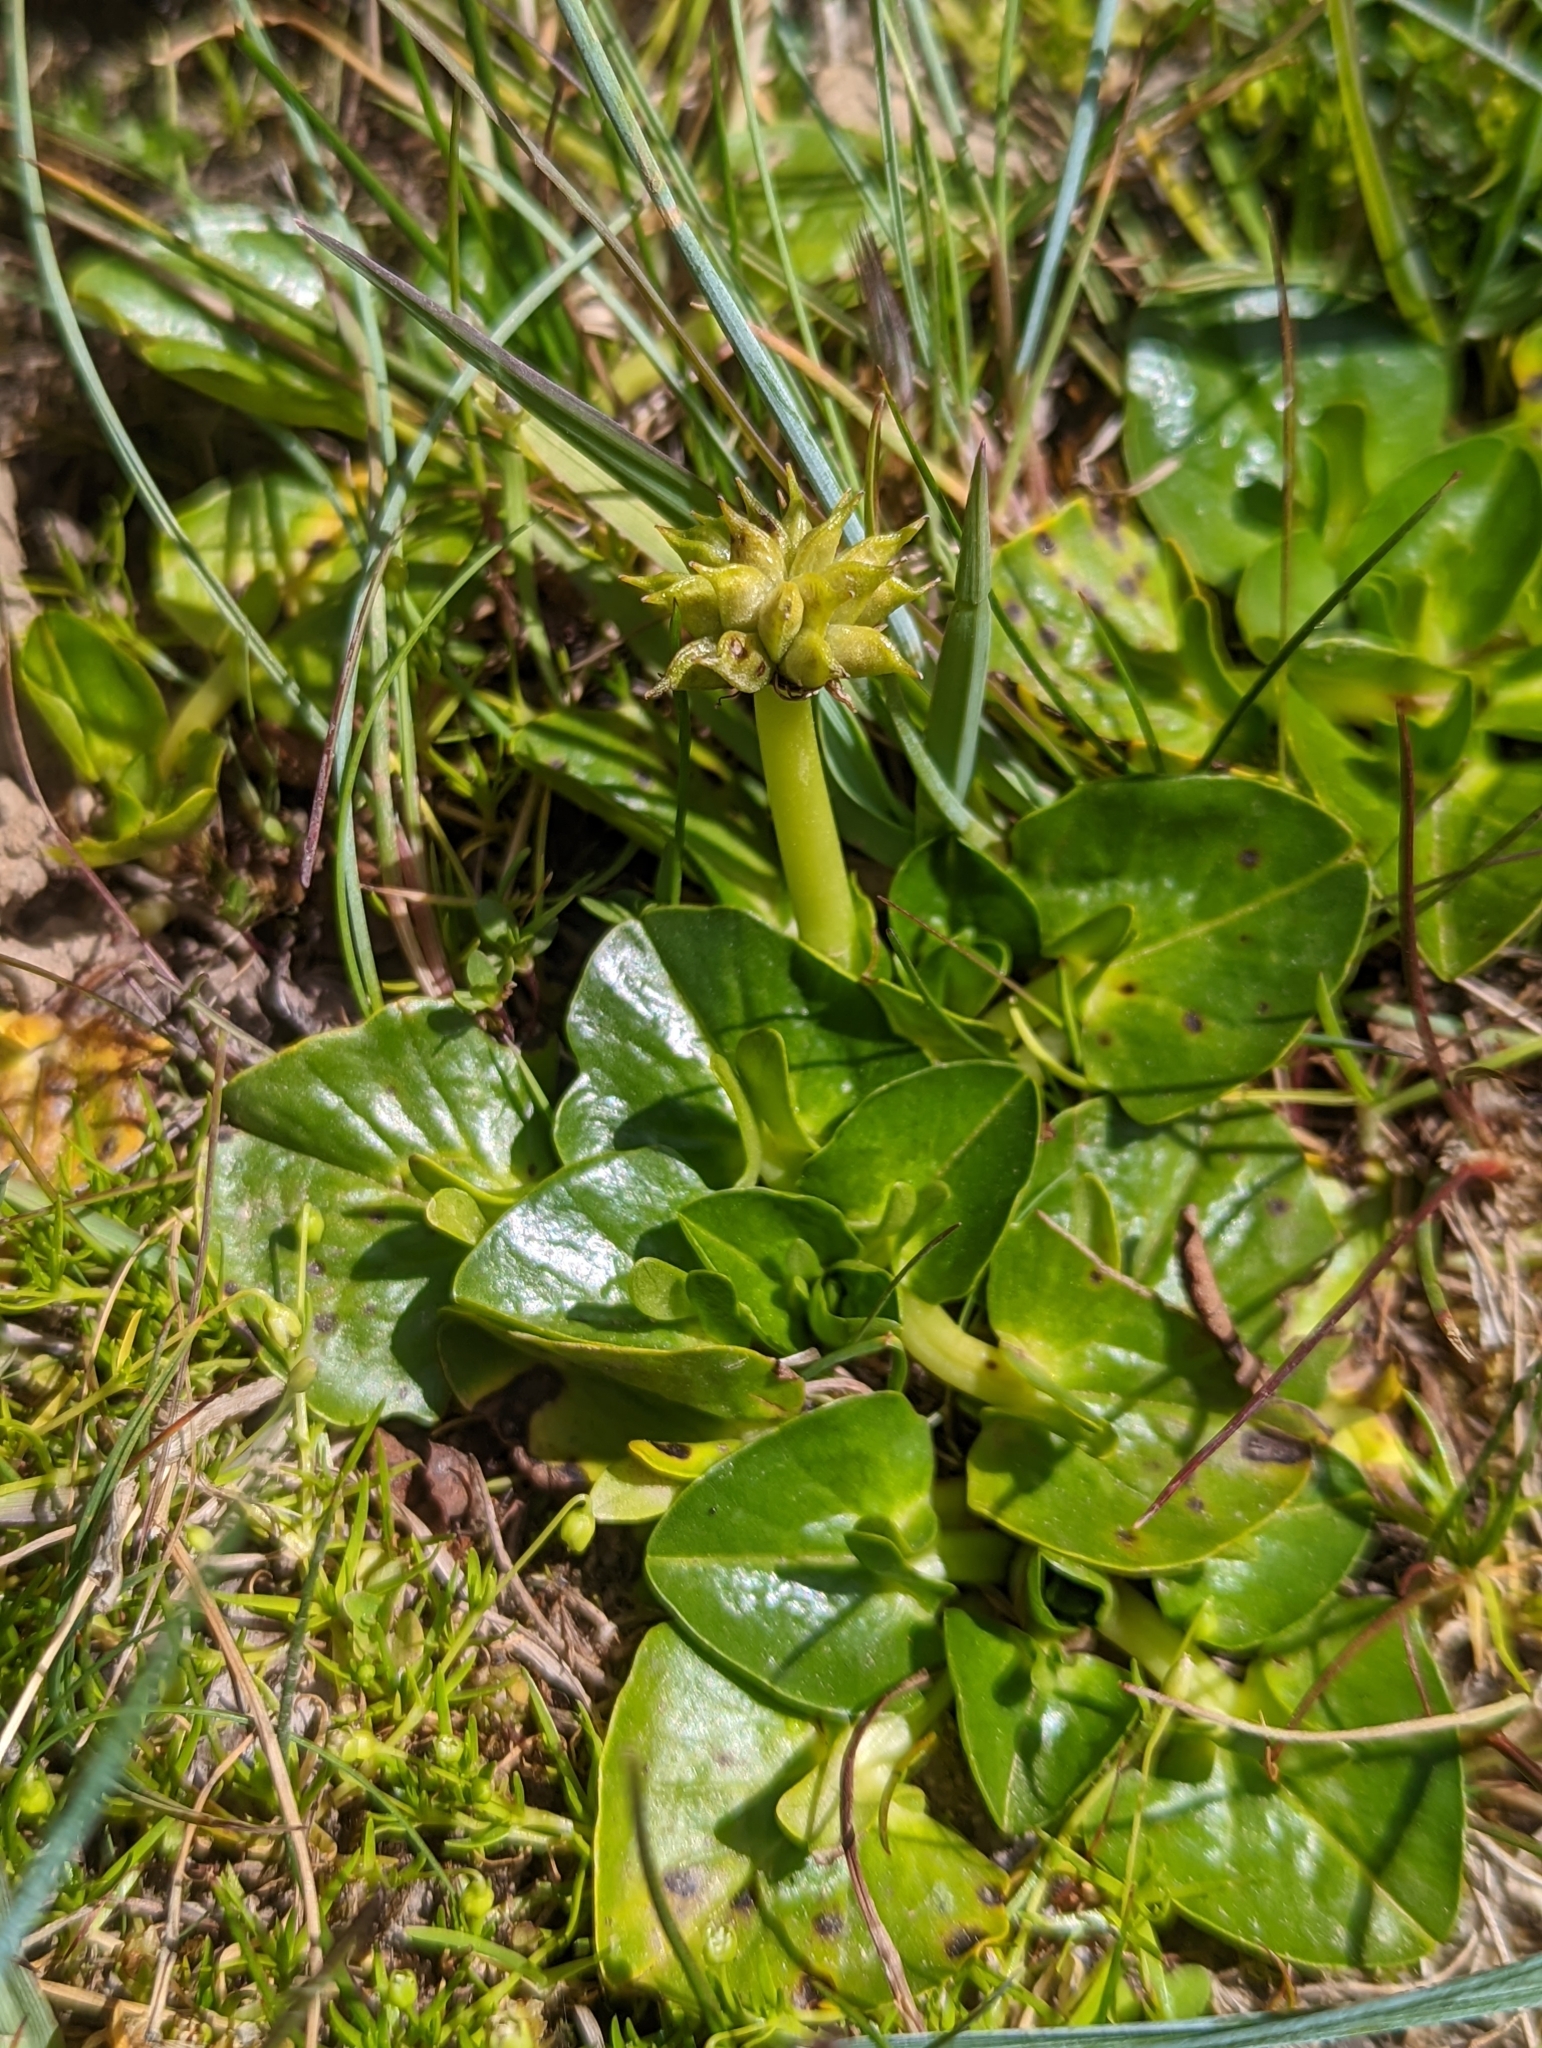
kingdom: Plantae
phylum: Tracheophyta
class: Magnoliopsida
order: Ranunculales
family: Ranunculaceae
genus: Caltha
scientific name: Caltha sagittata
